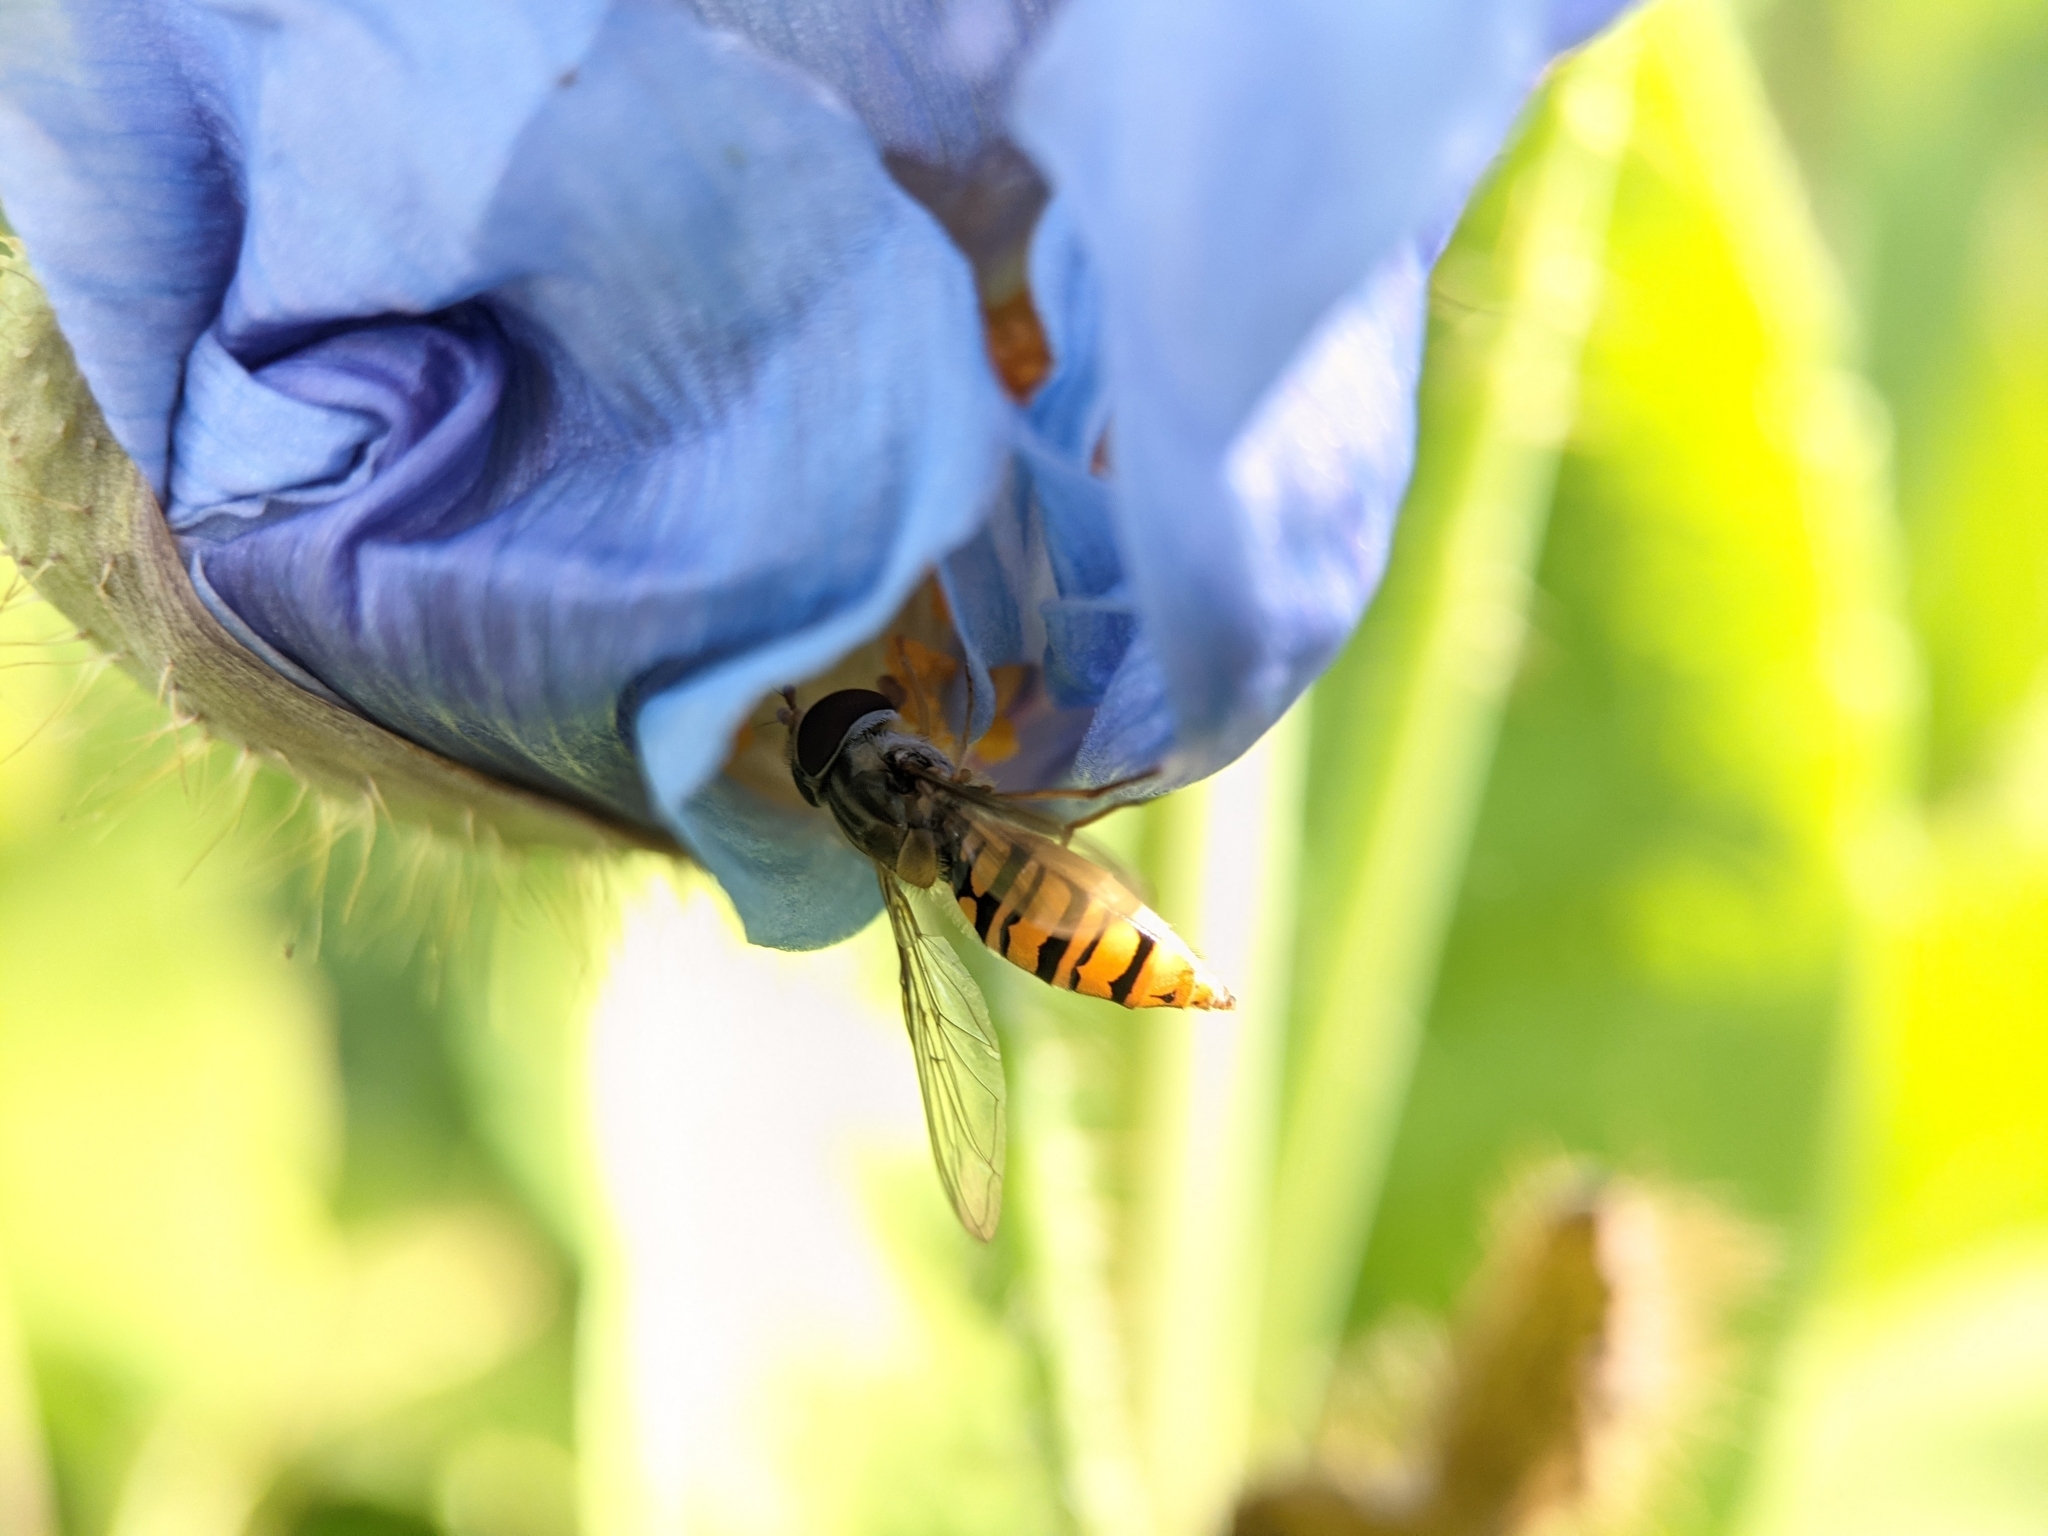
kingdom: Animalia
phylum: Arthropoda
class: Insecta
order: Diptera
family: Syrphidae
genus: Episyrphus
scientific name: Episyrphus balteatus
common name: Marmalade hoverfly
